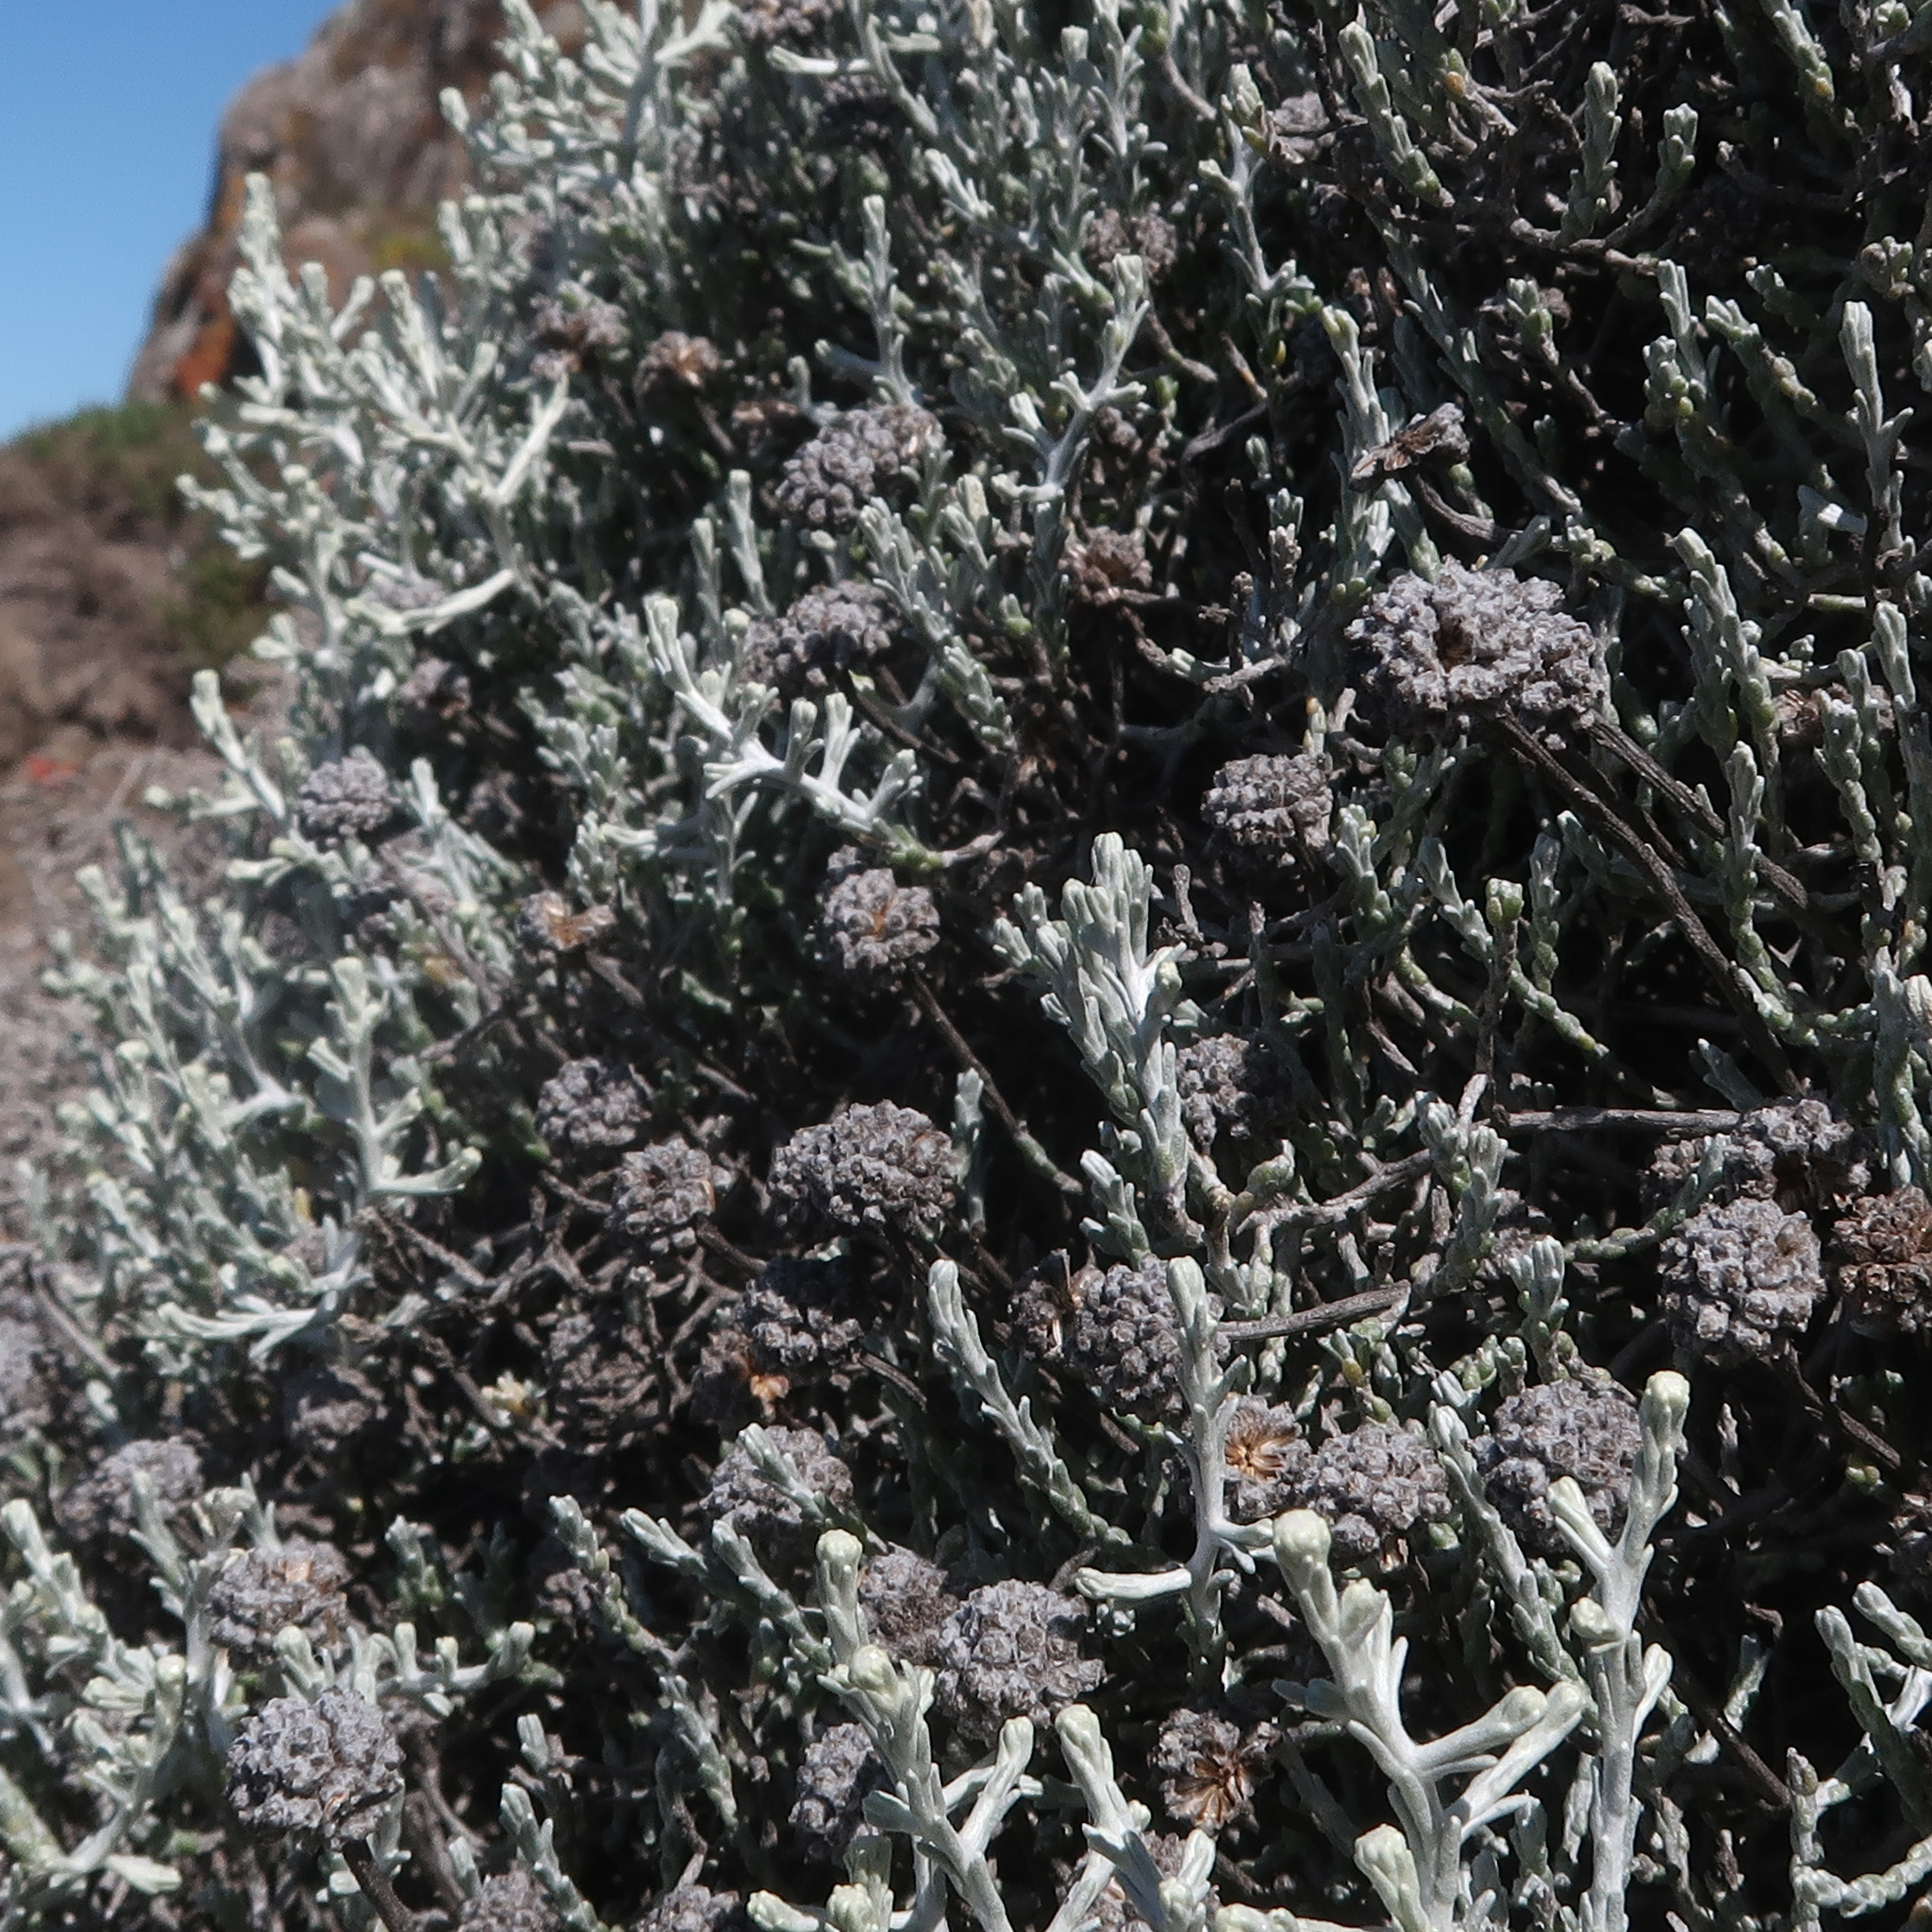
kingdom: Plantae
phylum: Tracheophyta
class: Magnoliopsida
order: Asterales
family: Asteraceae
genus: Calocephalus
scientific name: Calocephalus brownii
